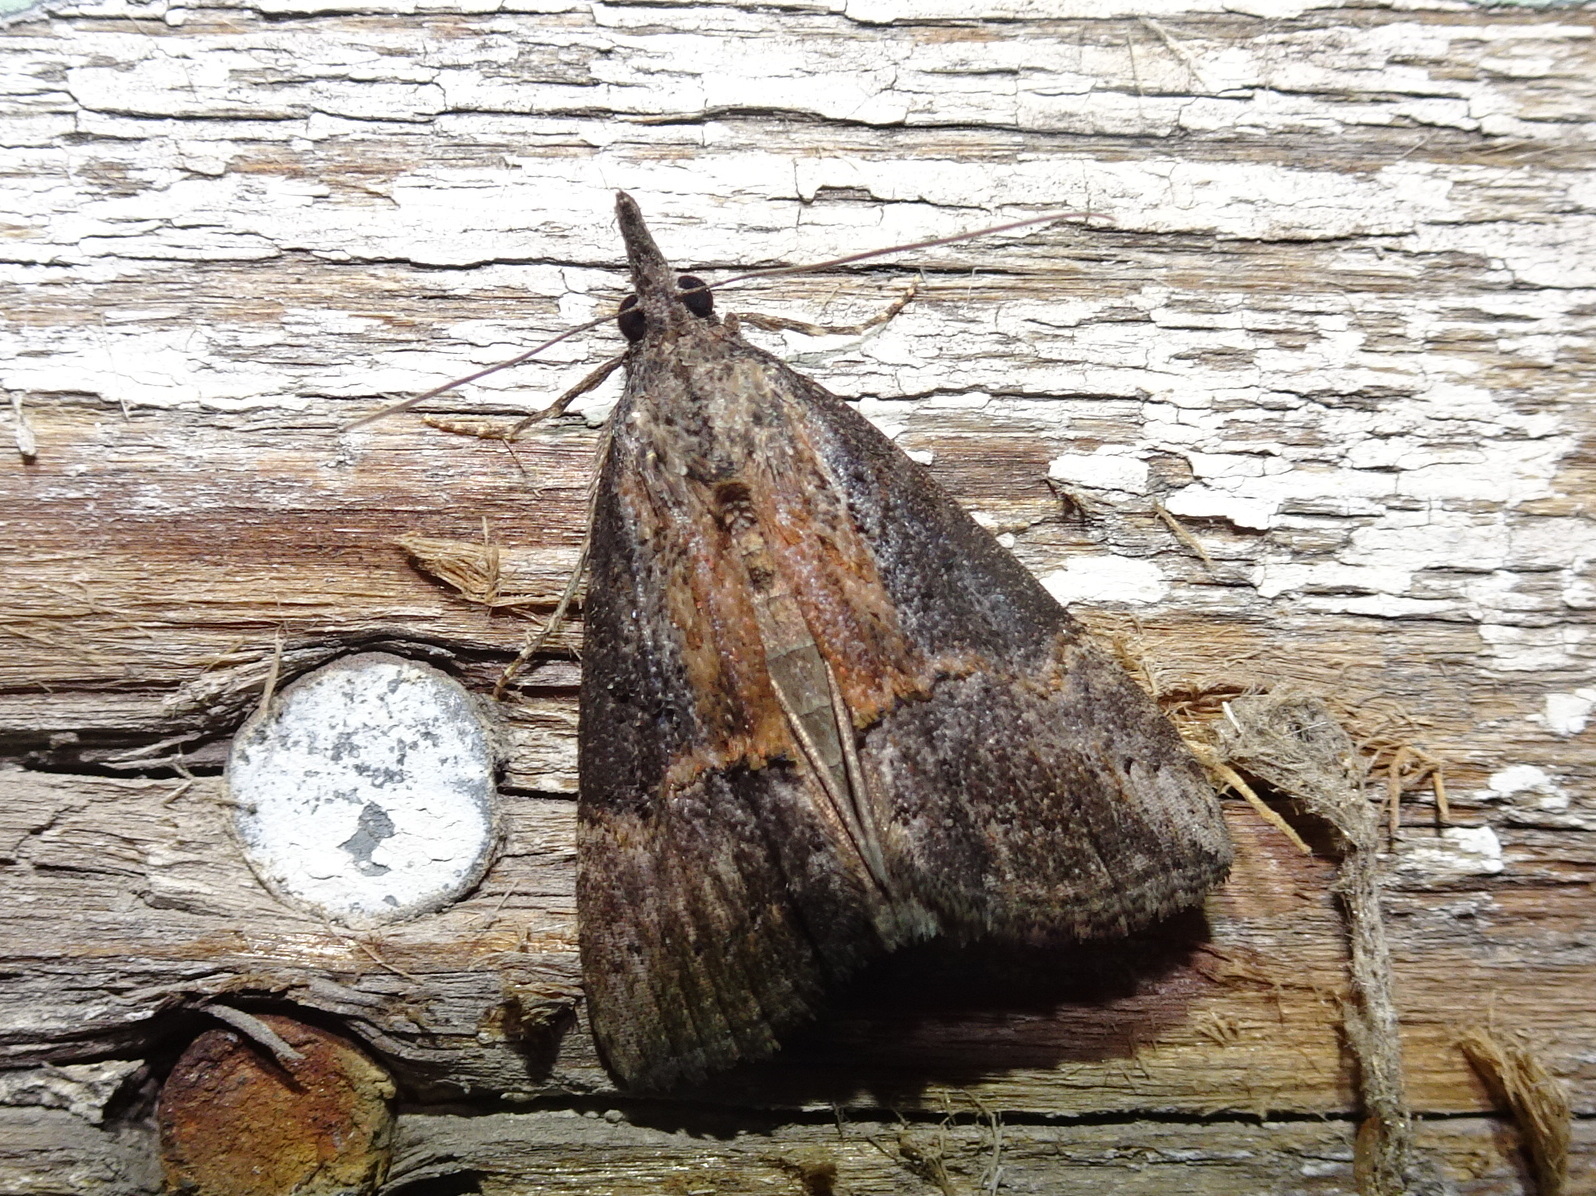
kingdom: Animalia
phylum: Arthropoda
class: Insecta
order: Lepidoptera
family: Erebidae
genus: Hypena
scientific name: Hypena scabra
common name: Green cloverworm
